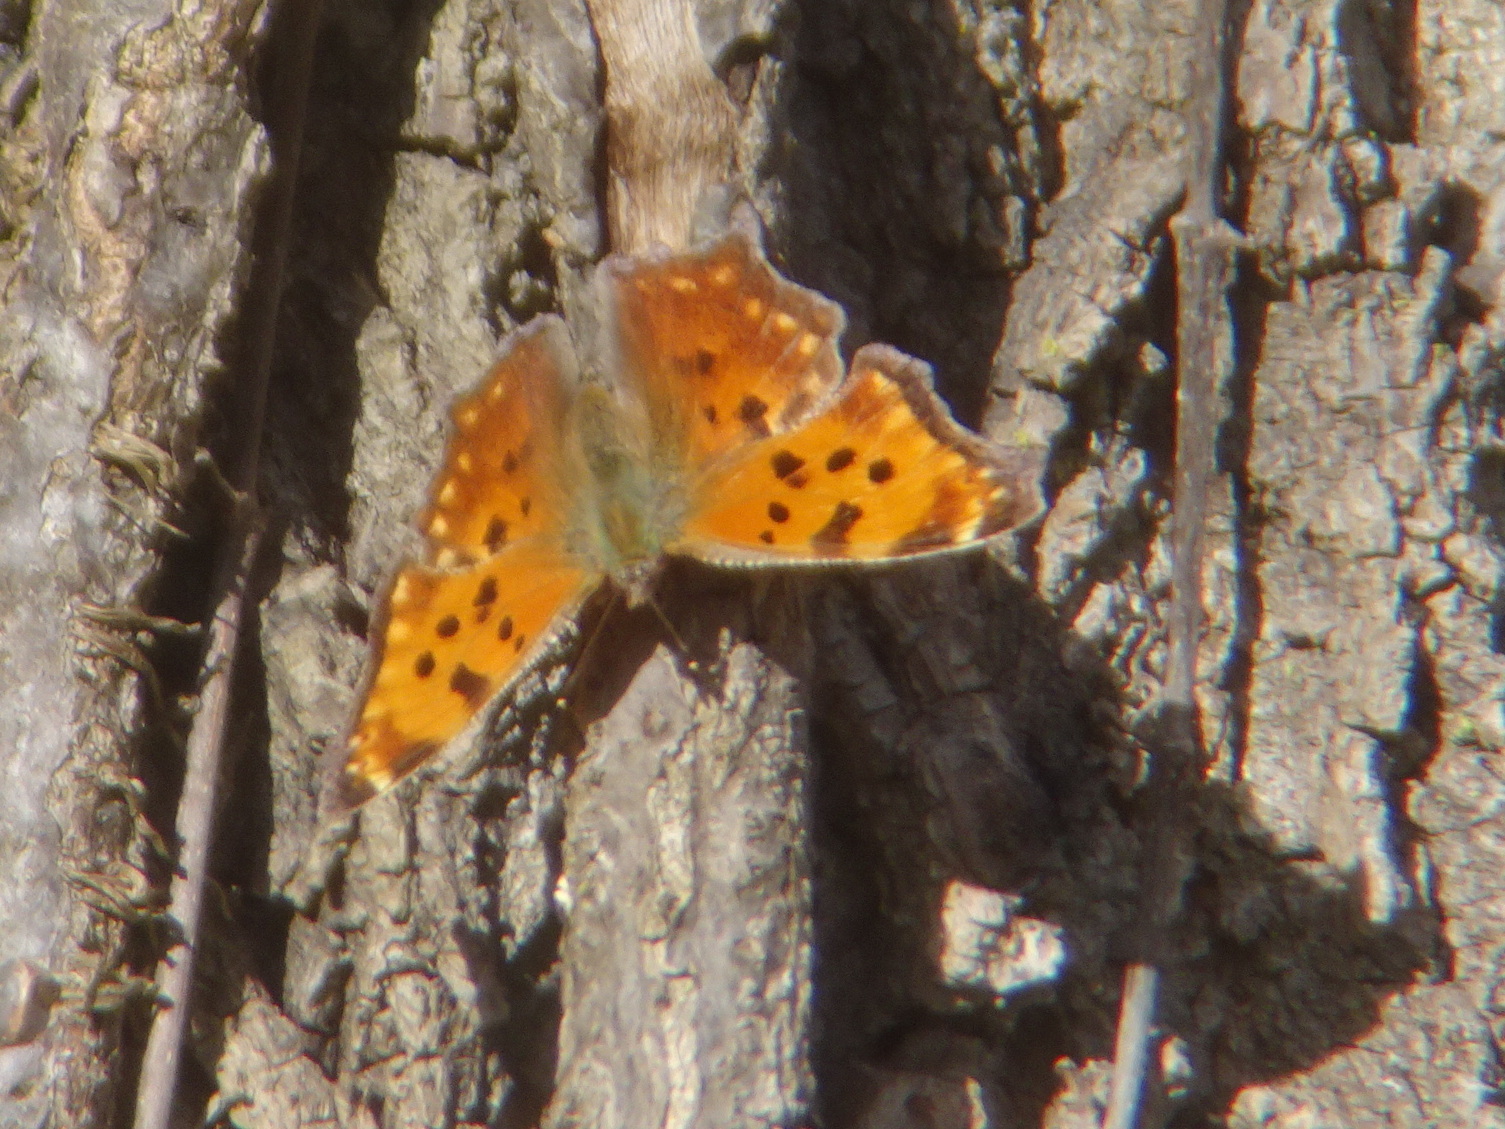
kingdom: Animalia
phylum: Arthropoda
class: Insecta
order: Lepidoptera
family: Nymphalidae
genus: Polygonia
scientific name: Polygonia comma
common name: Eastern comma
